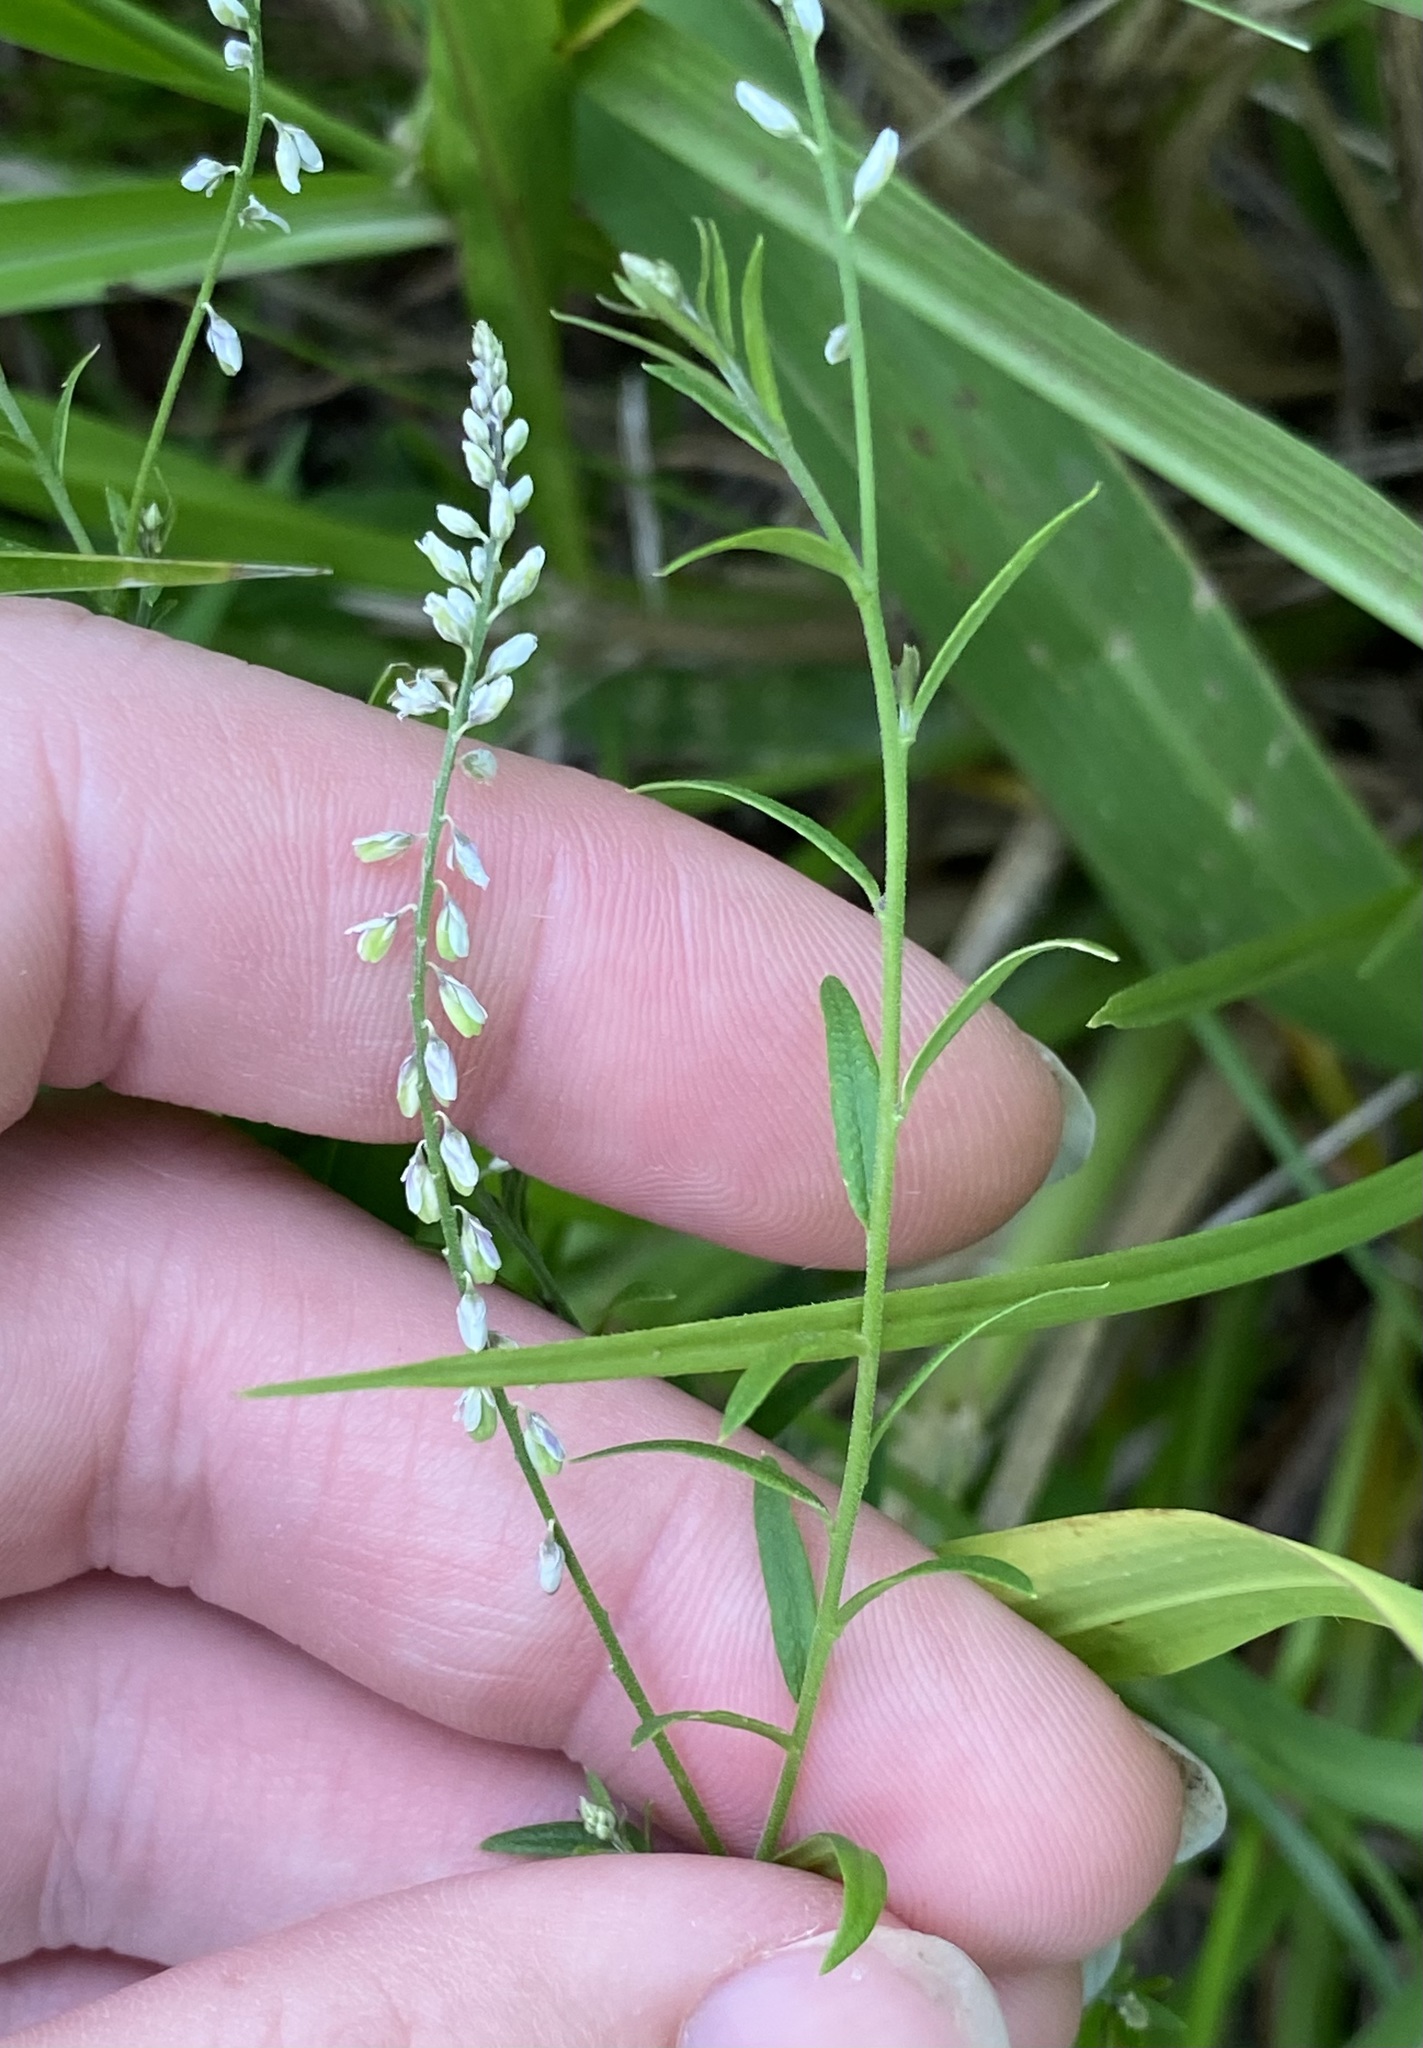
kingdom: Plantae
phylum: Tracheophyta
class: Magnoliopsida
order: Fabales
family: Polygalaceae
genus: Polygala
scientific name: Polygala paniculata
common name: Orosne
